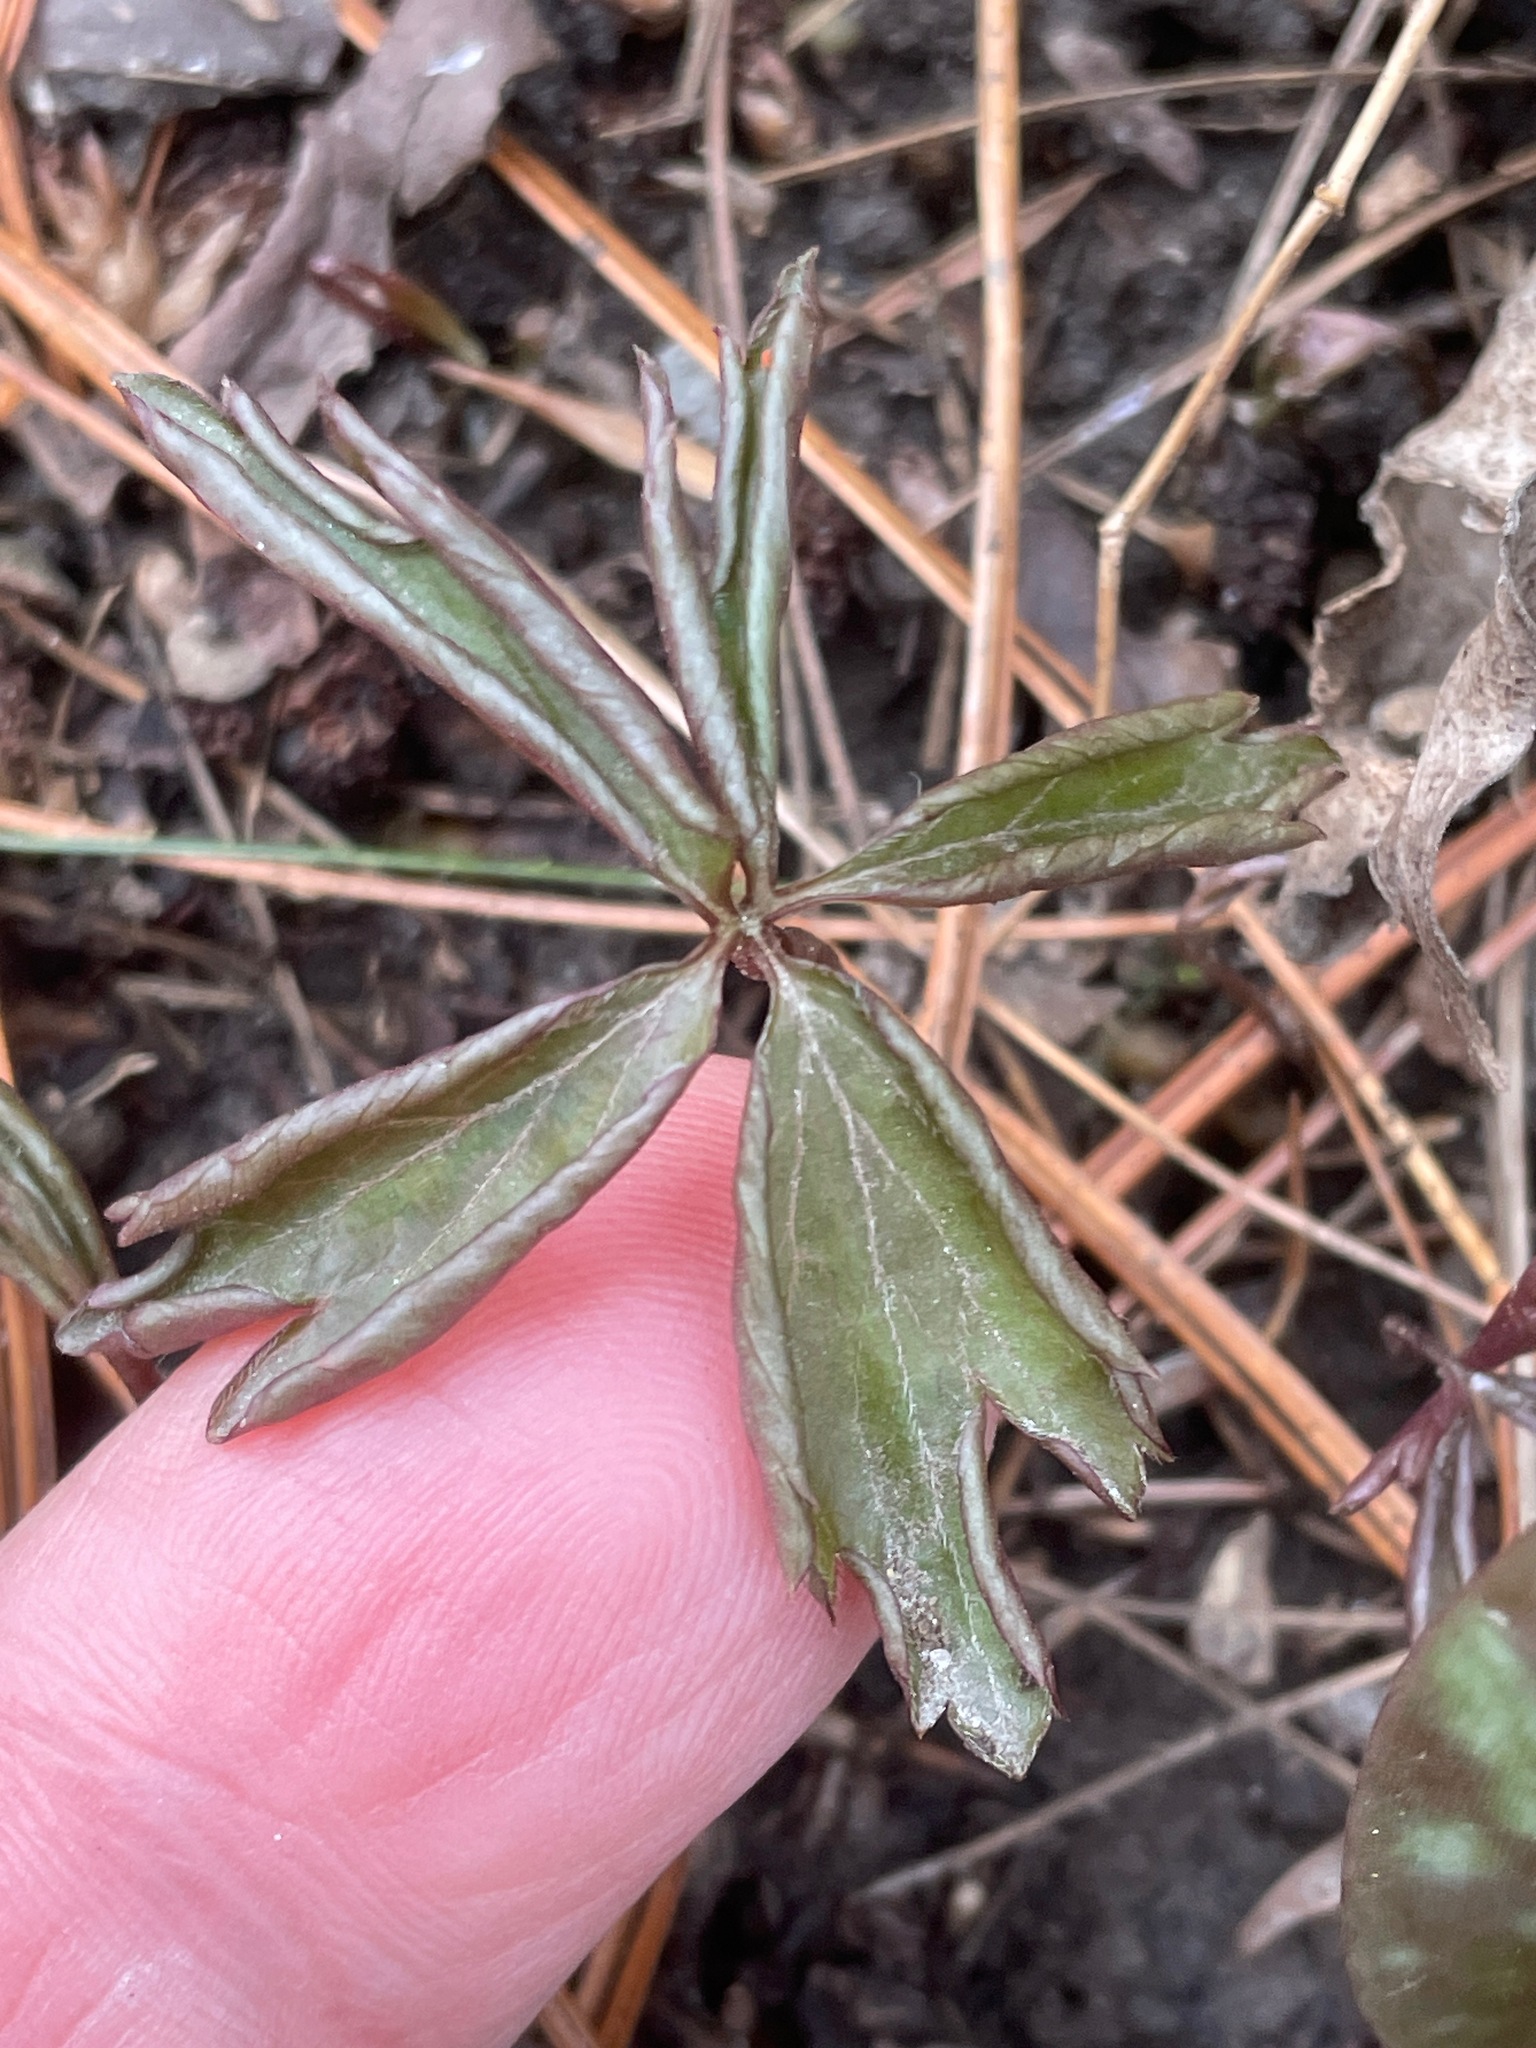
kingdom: Plantae
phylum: Tracheophyta
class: Magnoliopsida
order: Ranunculales
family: Ranunculaceae
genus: Anemone
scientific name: Anemone quinquefolia
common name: Wood anemone
